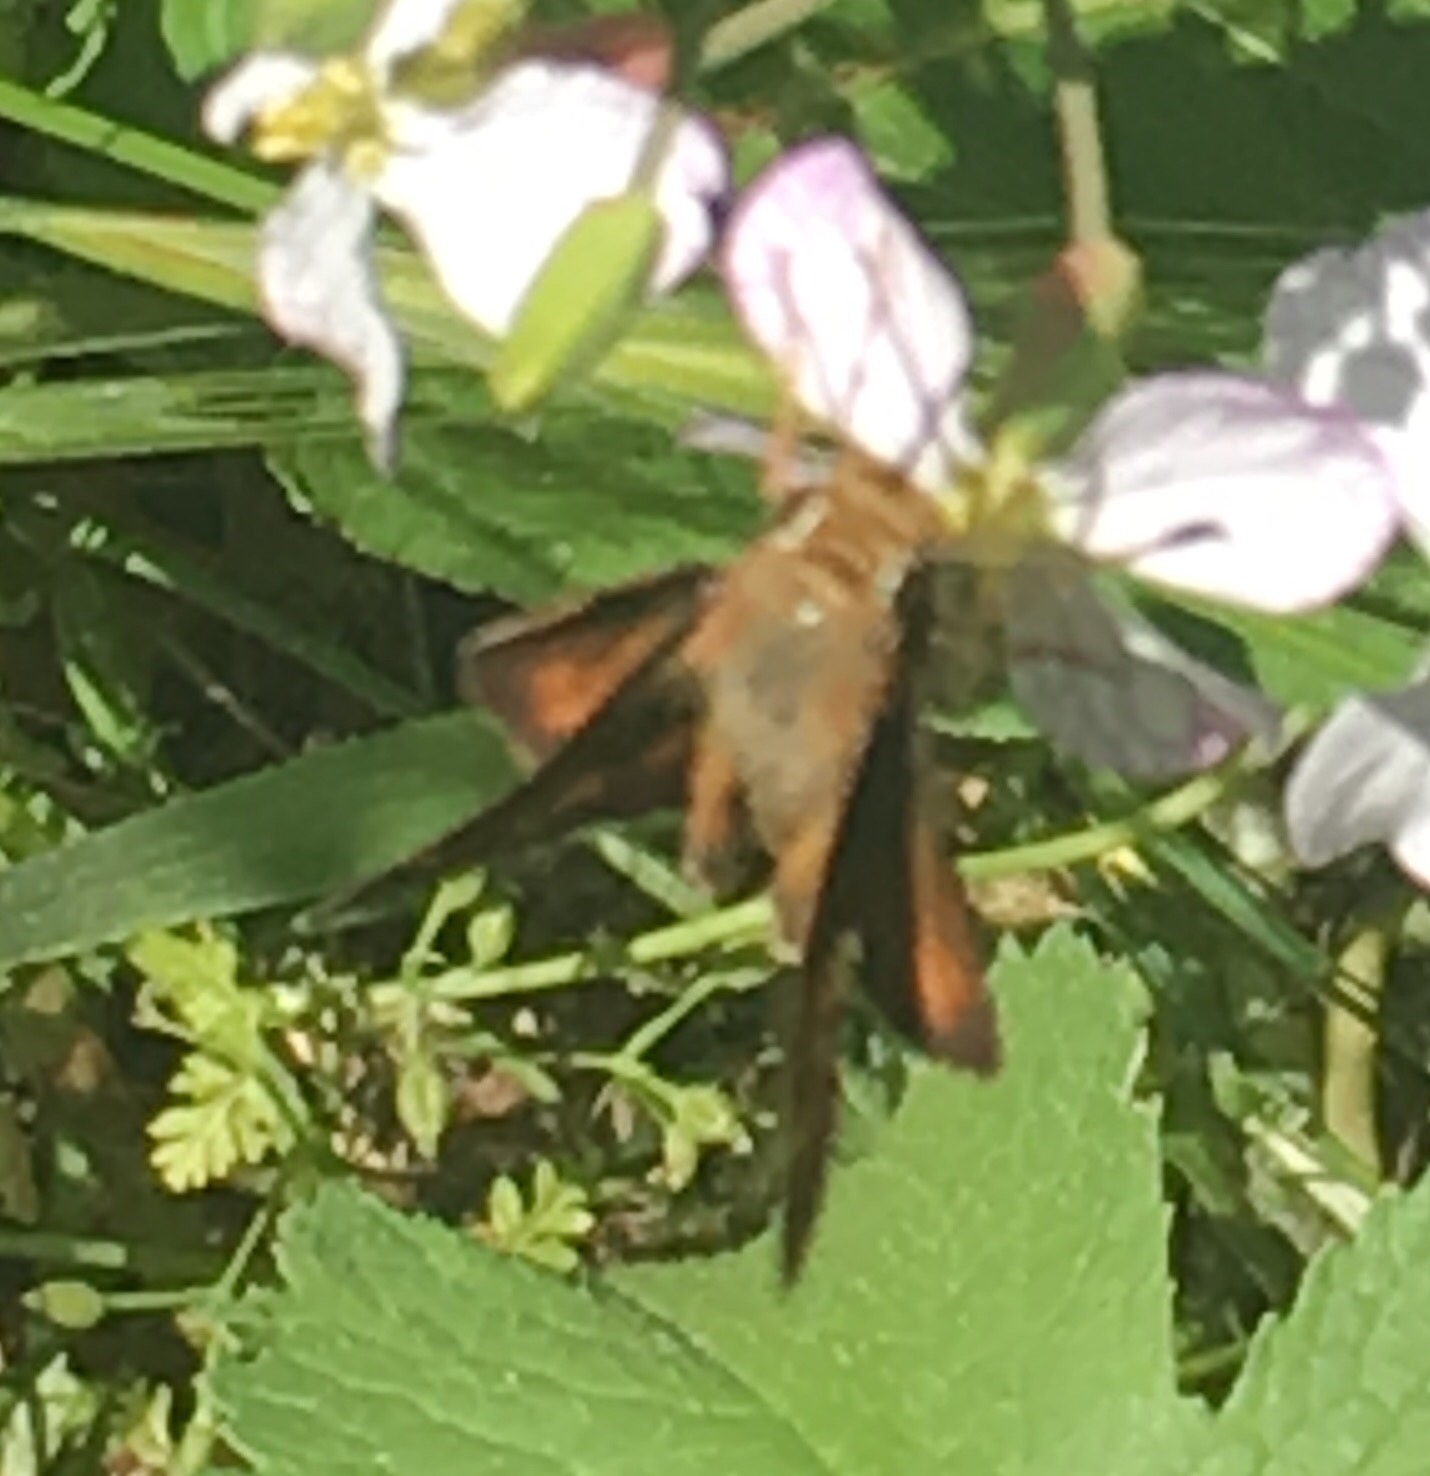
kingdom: Animalia
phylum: Arthropoda
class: Insecta
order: Lepidoptera
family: Hesperiidae
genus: Lon
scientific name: Lon melane
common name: Umber skipper
